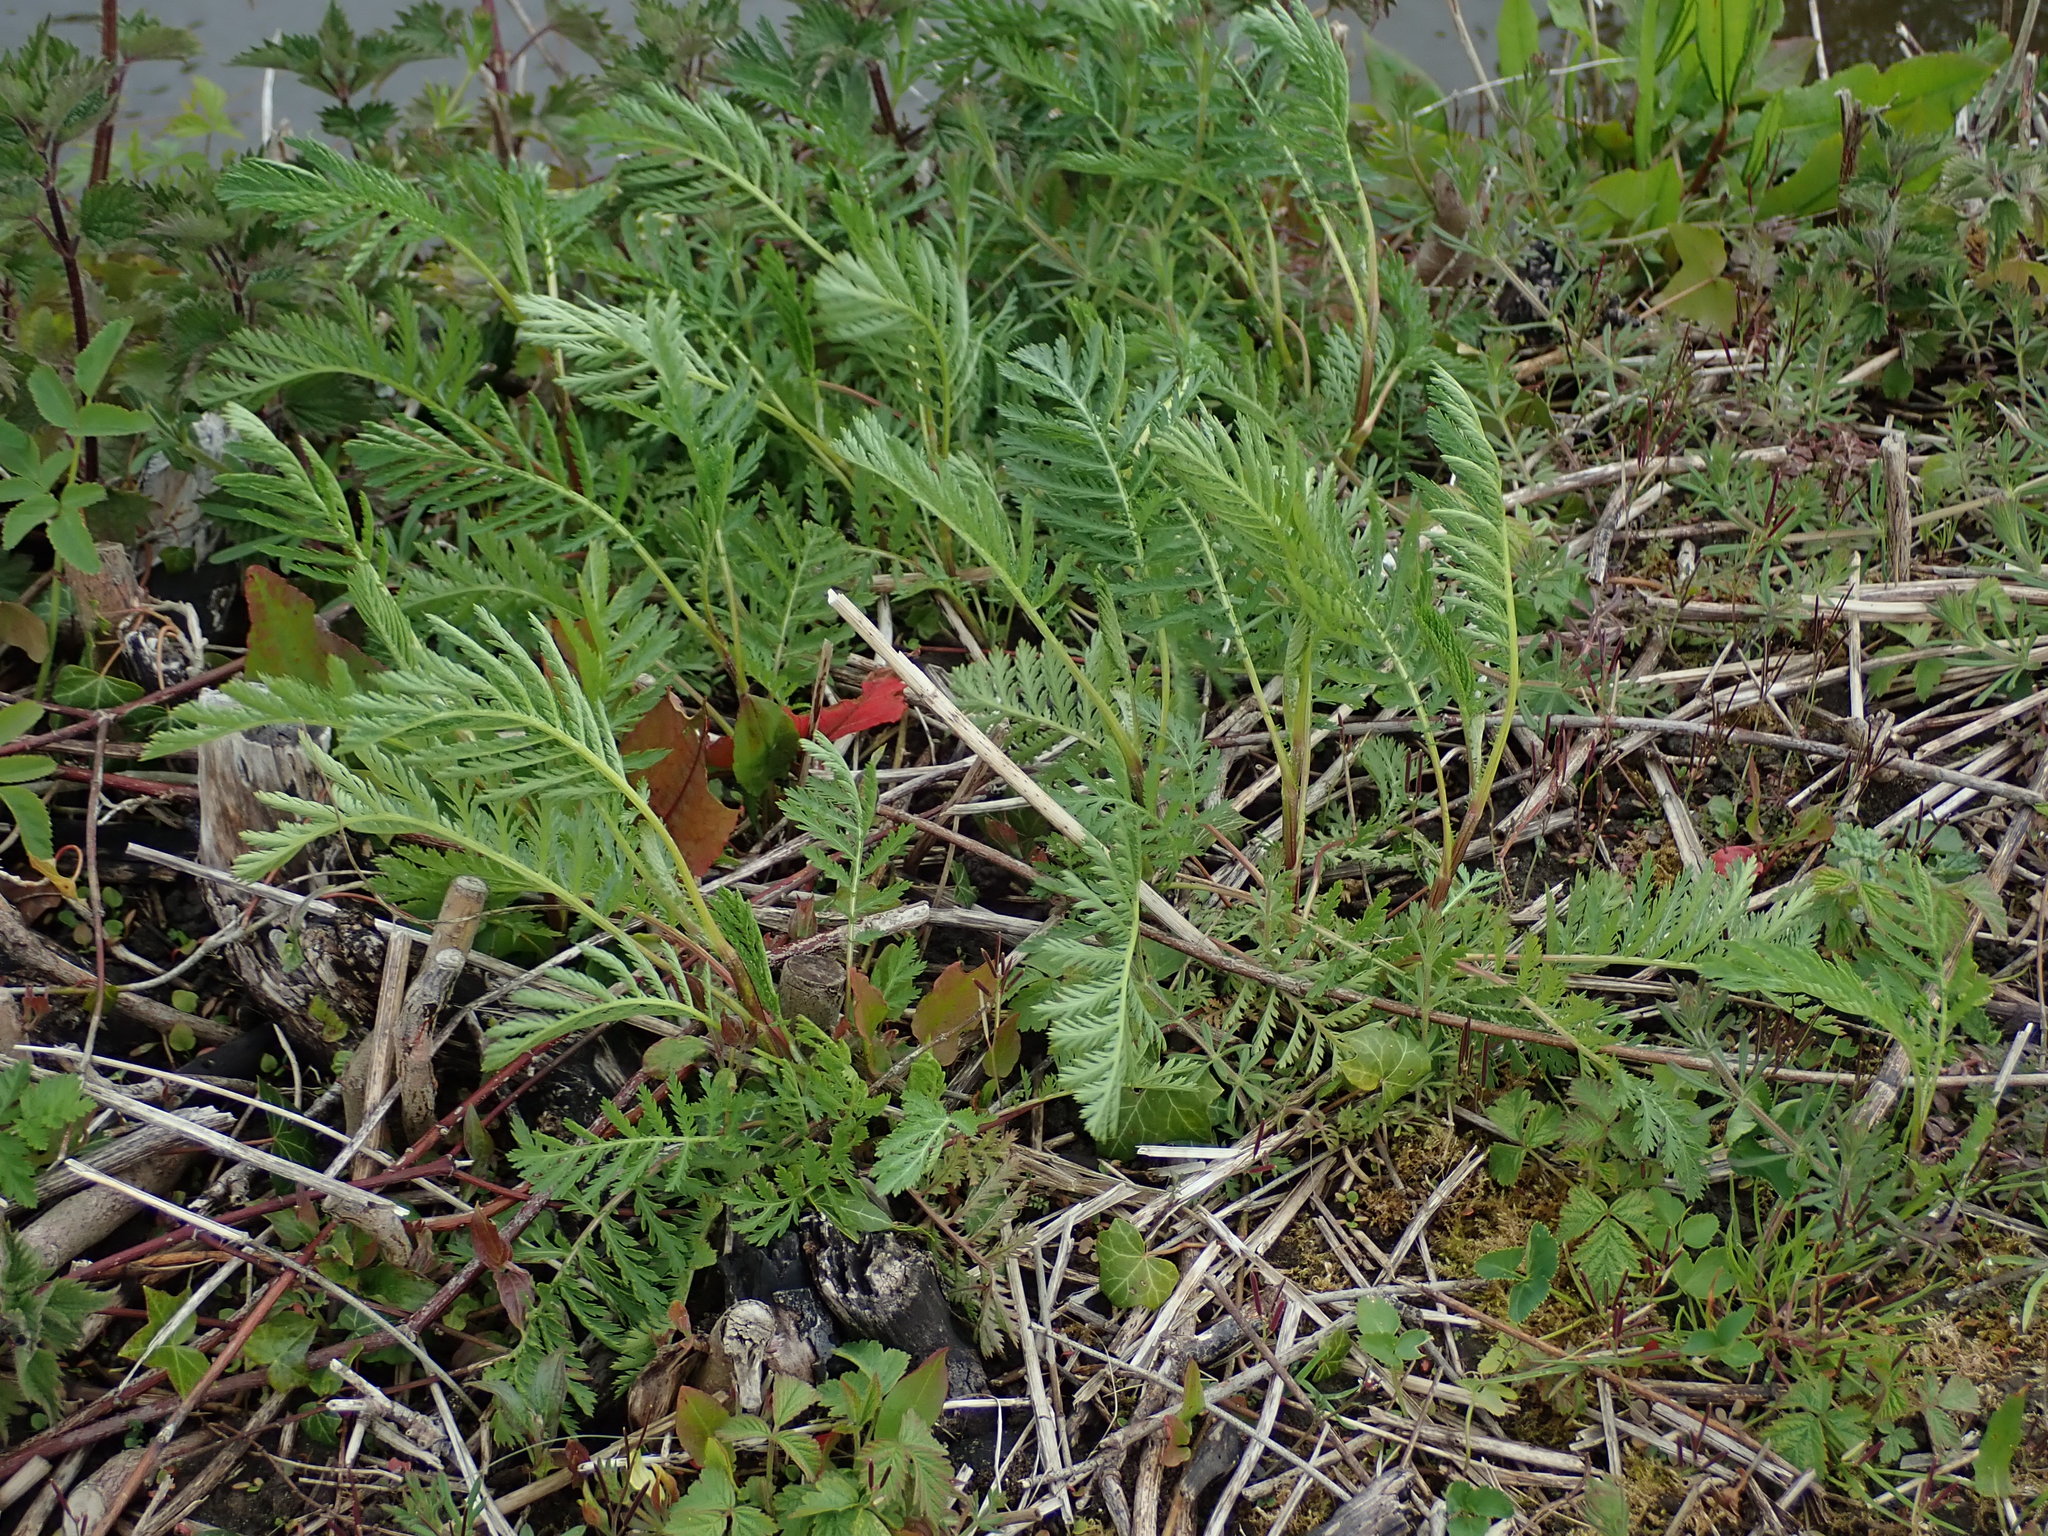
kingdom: Plantae
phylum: Tracheophyta
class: Magnoliopsida
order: Asterales
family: Asteraceae
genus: Tanacetum
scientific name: Tanacetum vulgare
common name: Common tansy
